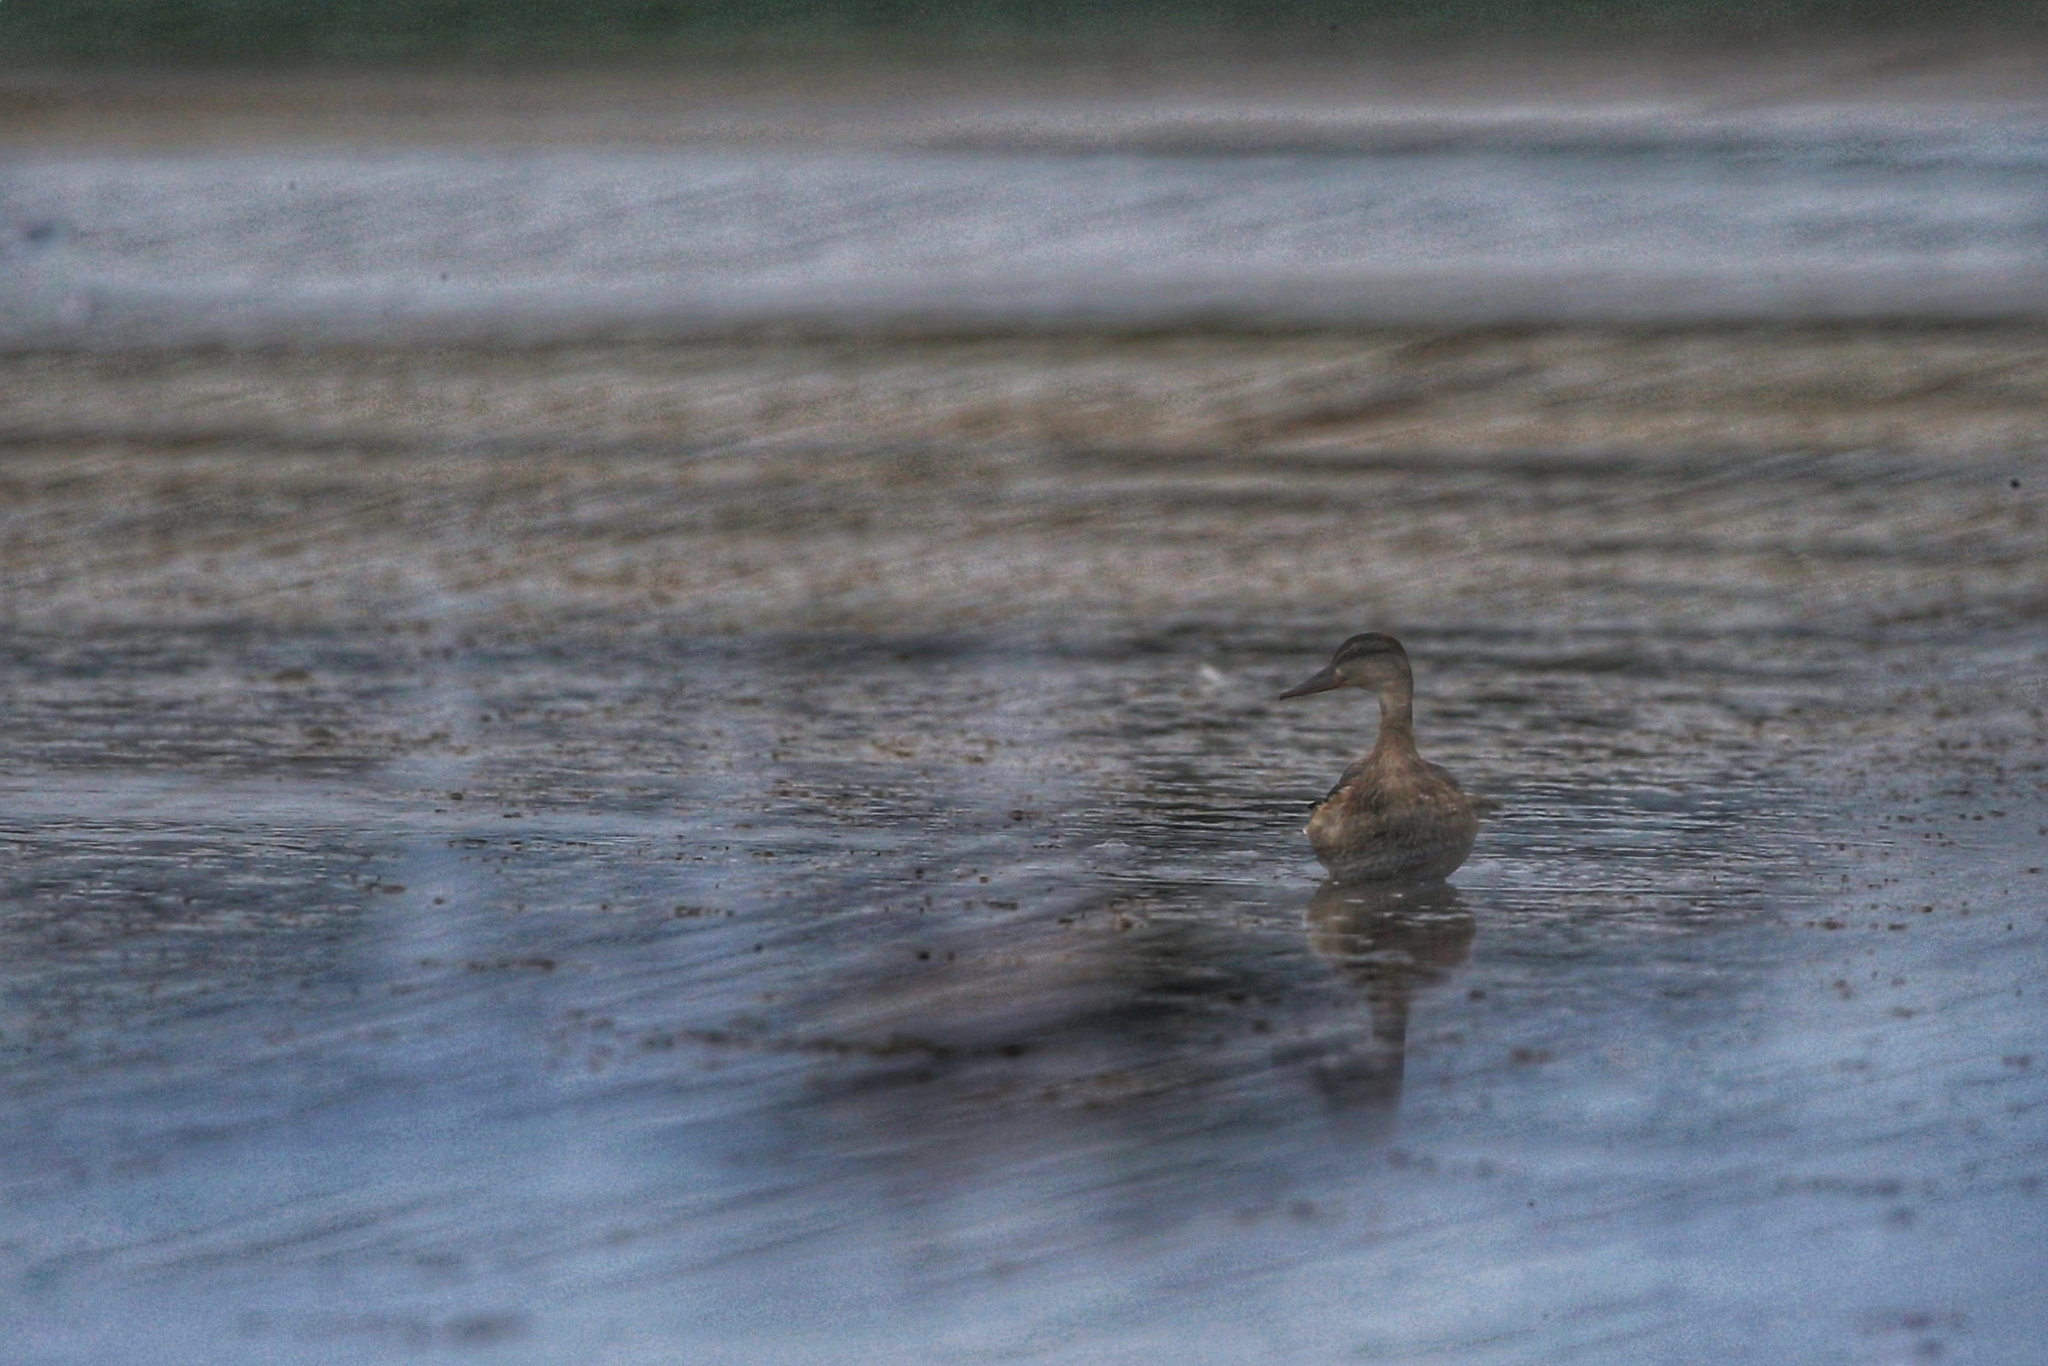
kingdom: Animalia
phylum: Chordata
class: Aves
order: Anseriformes
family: Anatidae
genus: Anas
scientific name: Anas platyrhynchos
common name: Mallard
